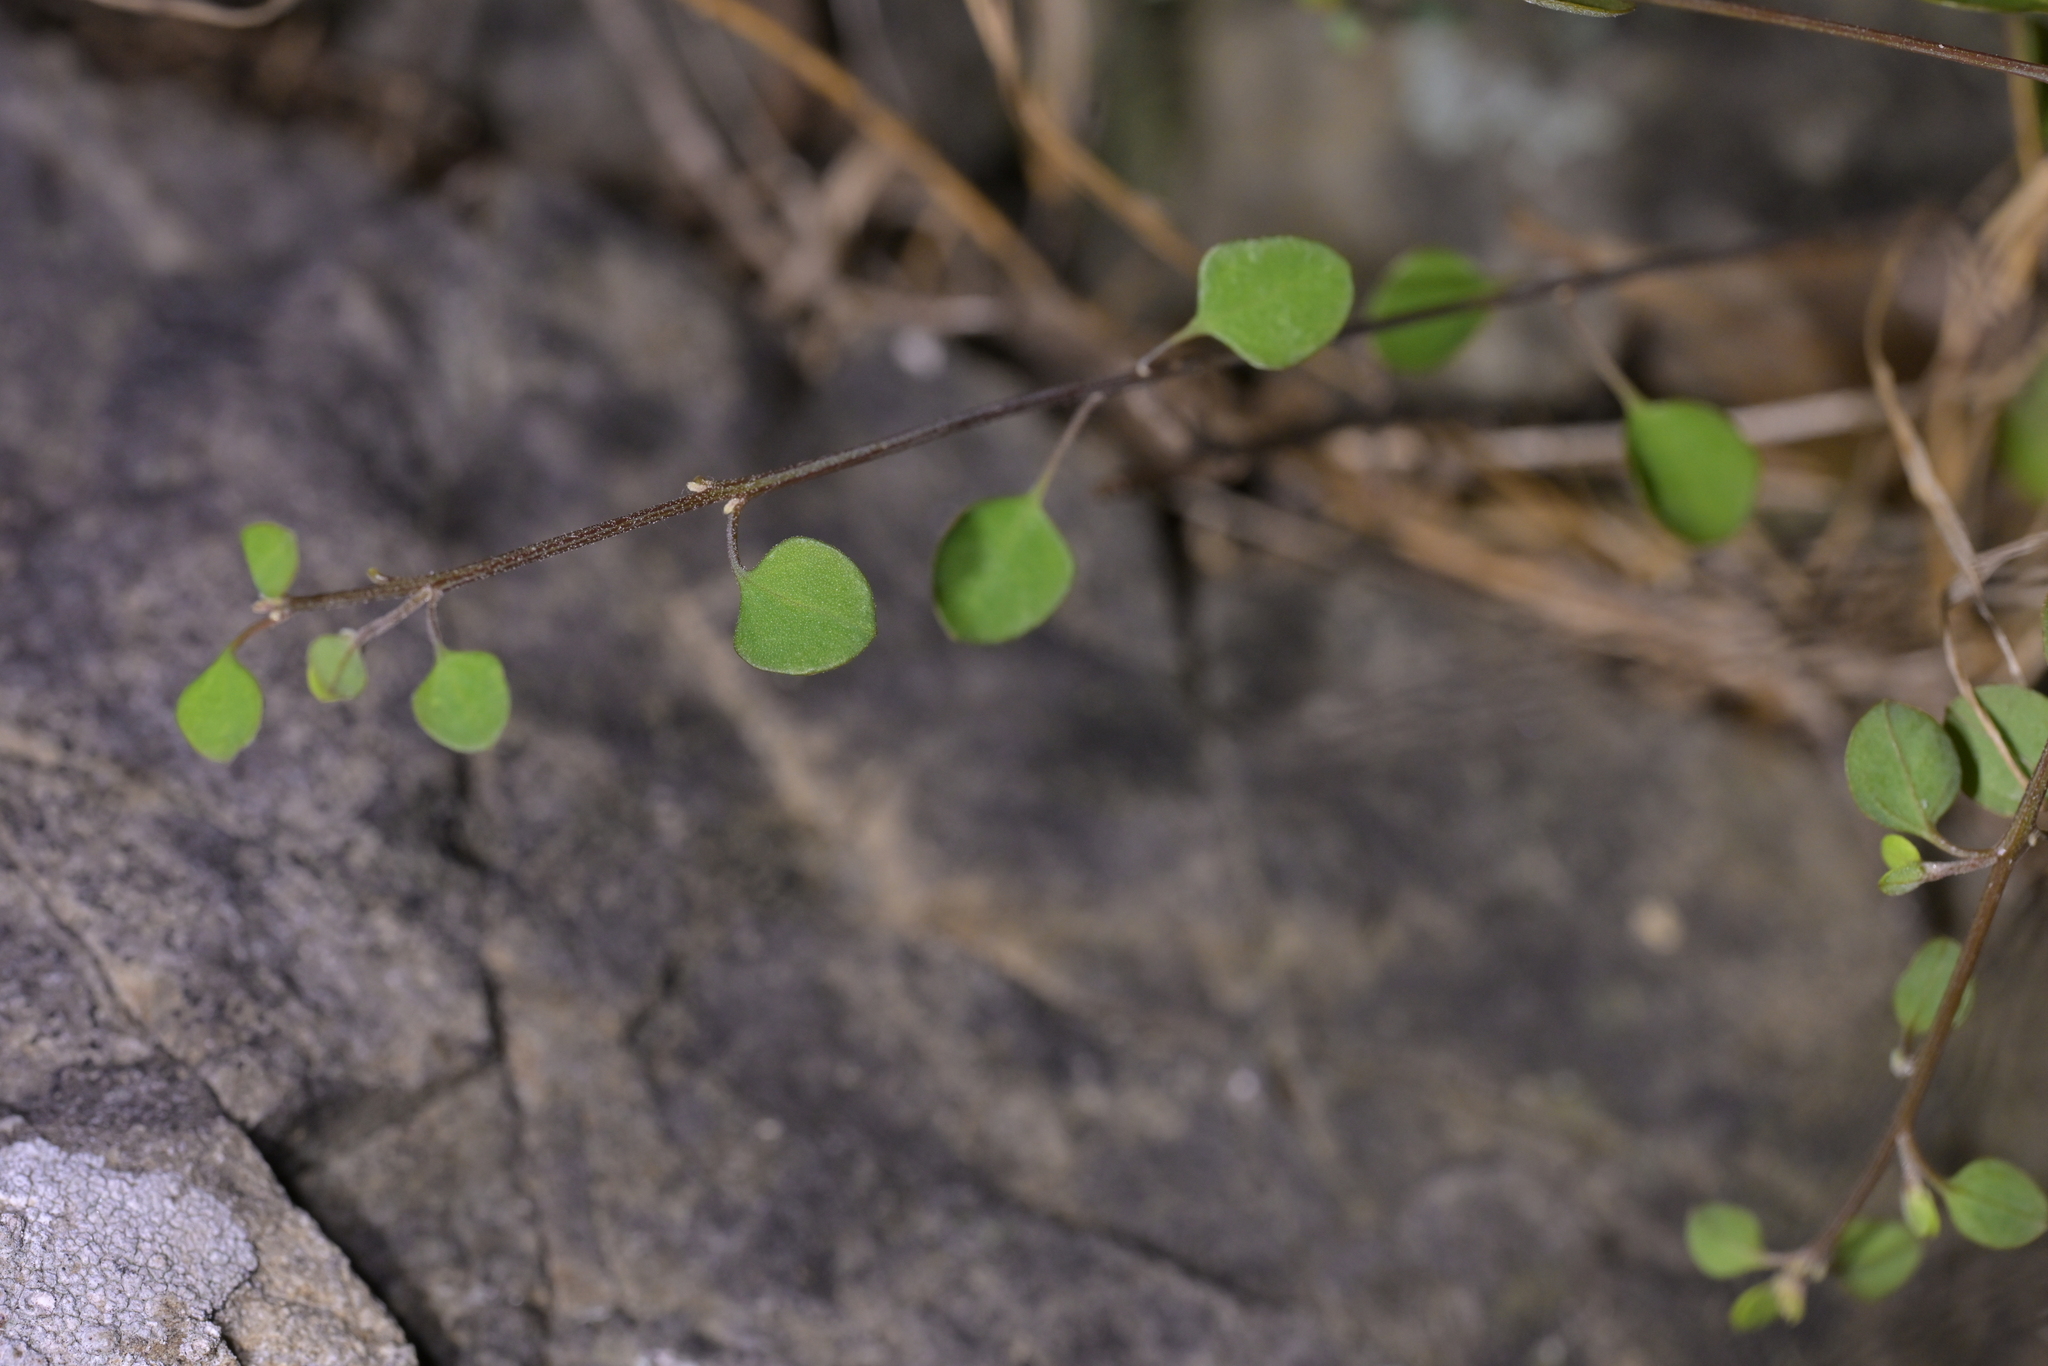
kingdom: Plantae
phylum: Tracheophyta
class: Magnoliopsida
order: Lamiales
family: Lamiaceae
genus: Teucrium
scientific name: Teucrium parvifolium
